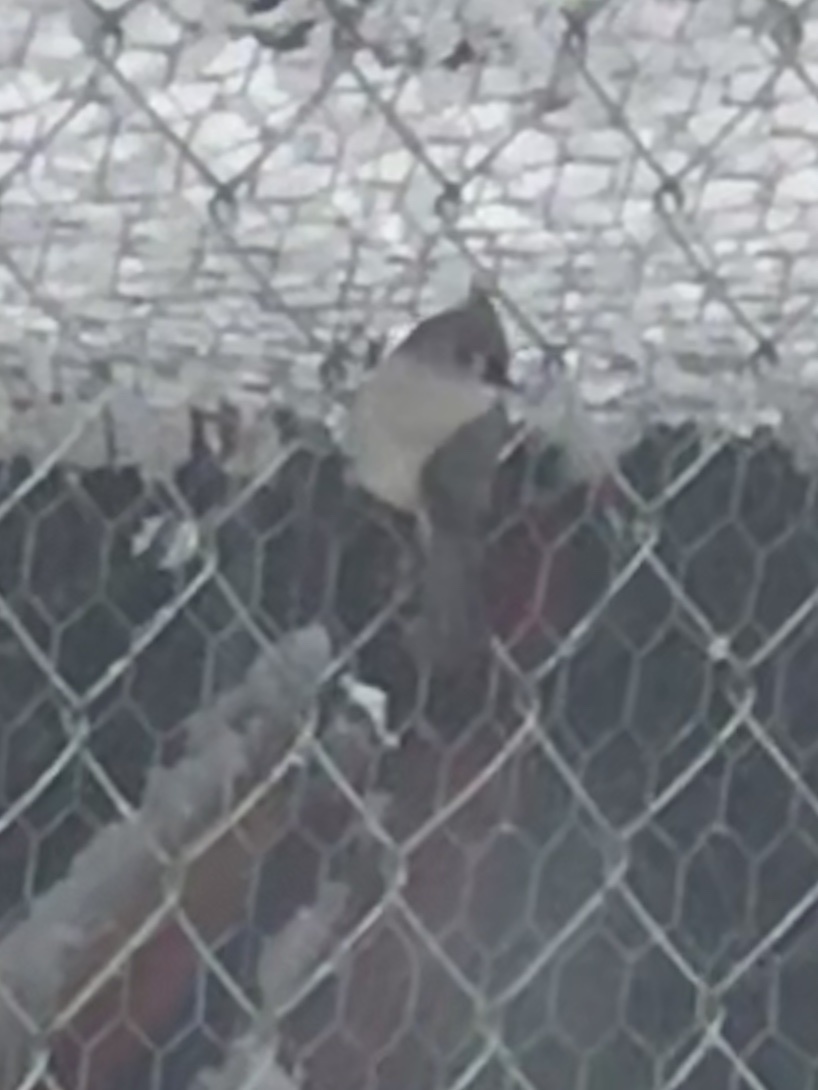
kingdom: Animalia
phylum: Chordata
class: Aves
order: Passeriformes
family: Paridae
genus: Baeolophus
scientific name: Baeolophus bicolor
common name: Tufted titmouse
